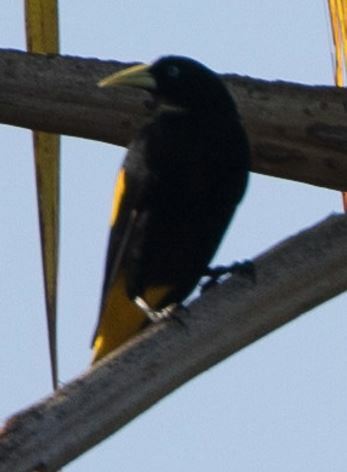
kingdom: Animalia
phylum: Chordata
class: Aves
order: Passeriformes
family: Icteridae
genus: Cacicus
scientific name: Cacicus cela
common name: Yellow-rumped cacique
